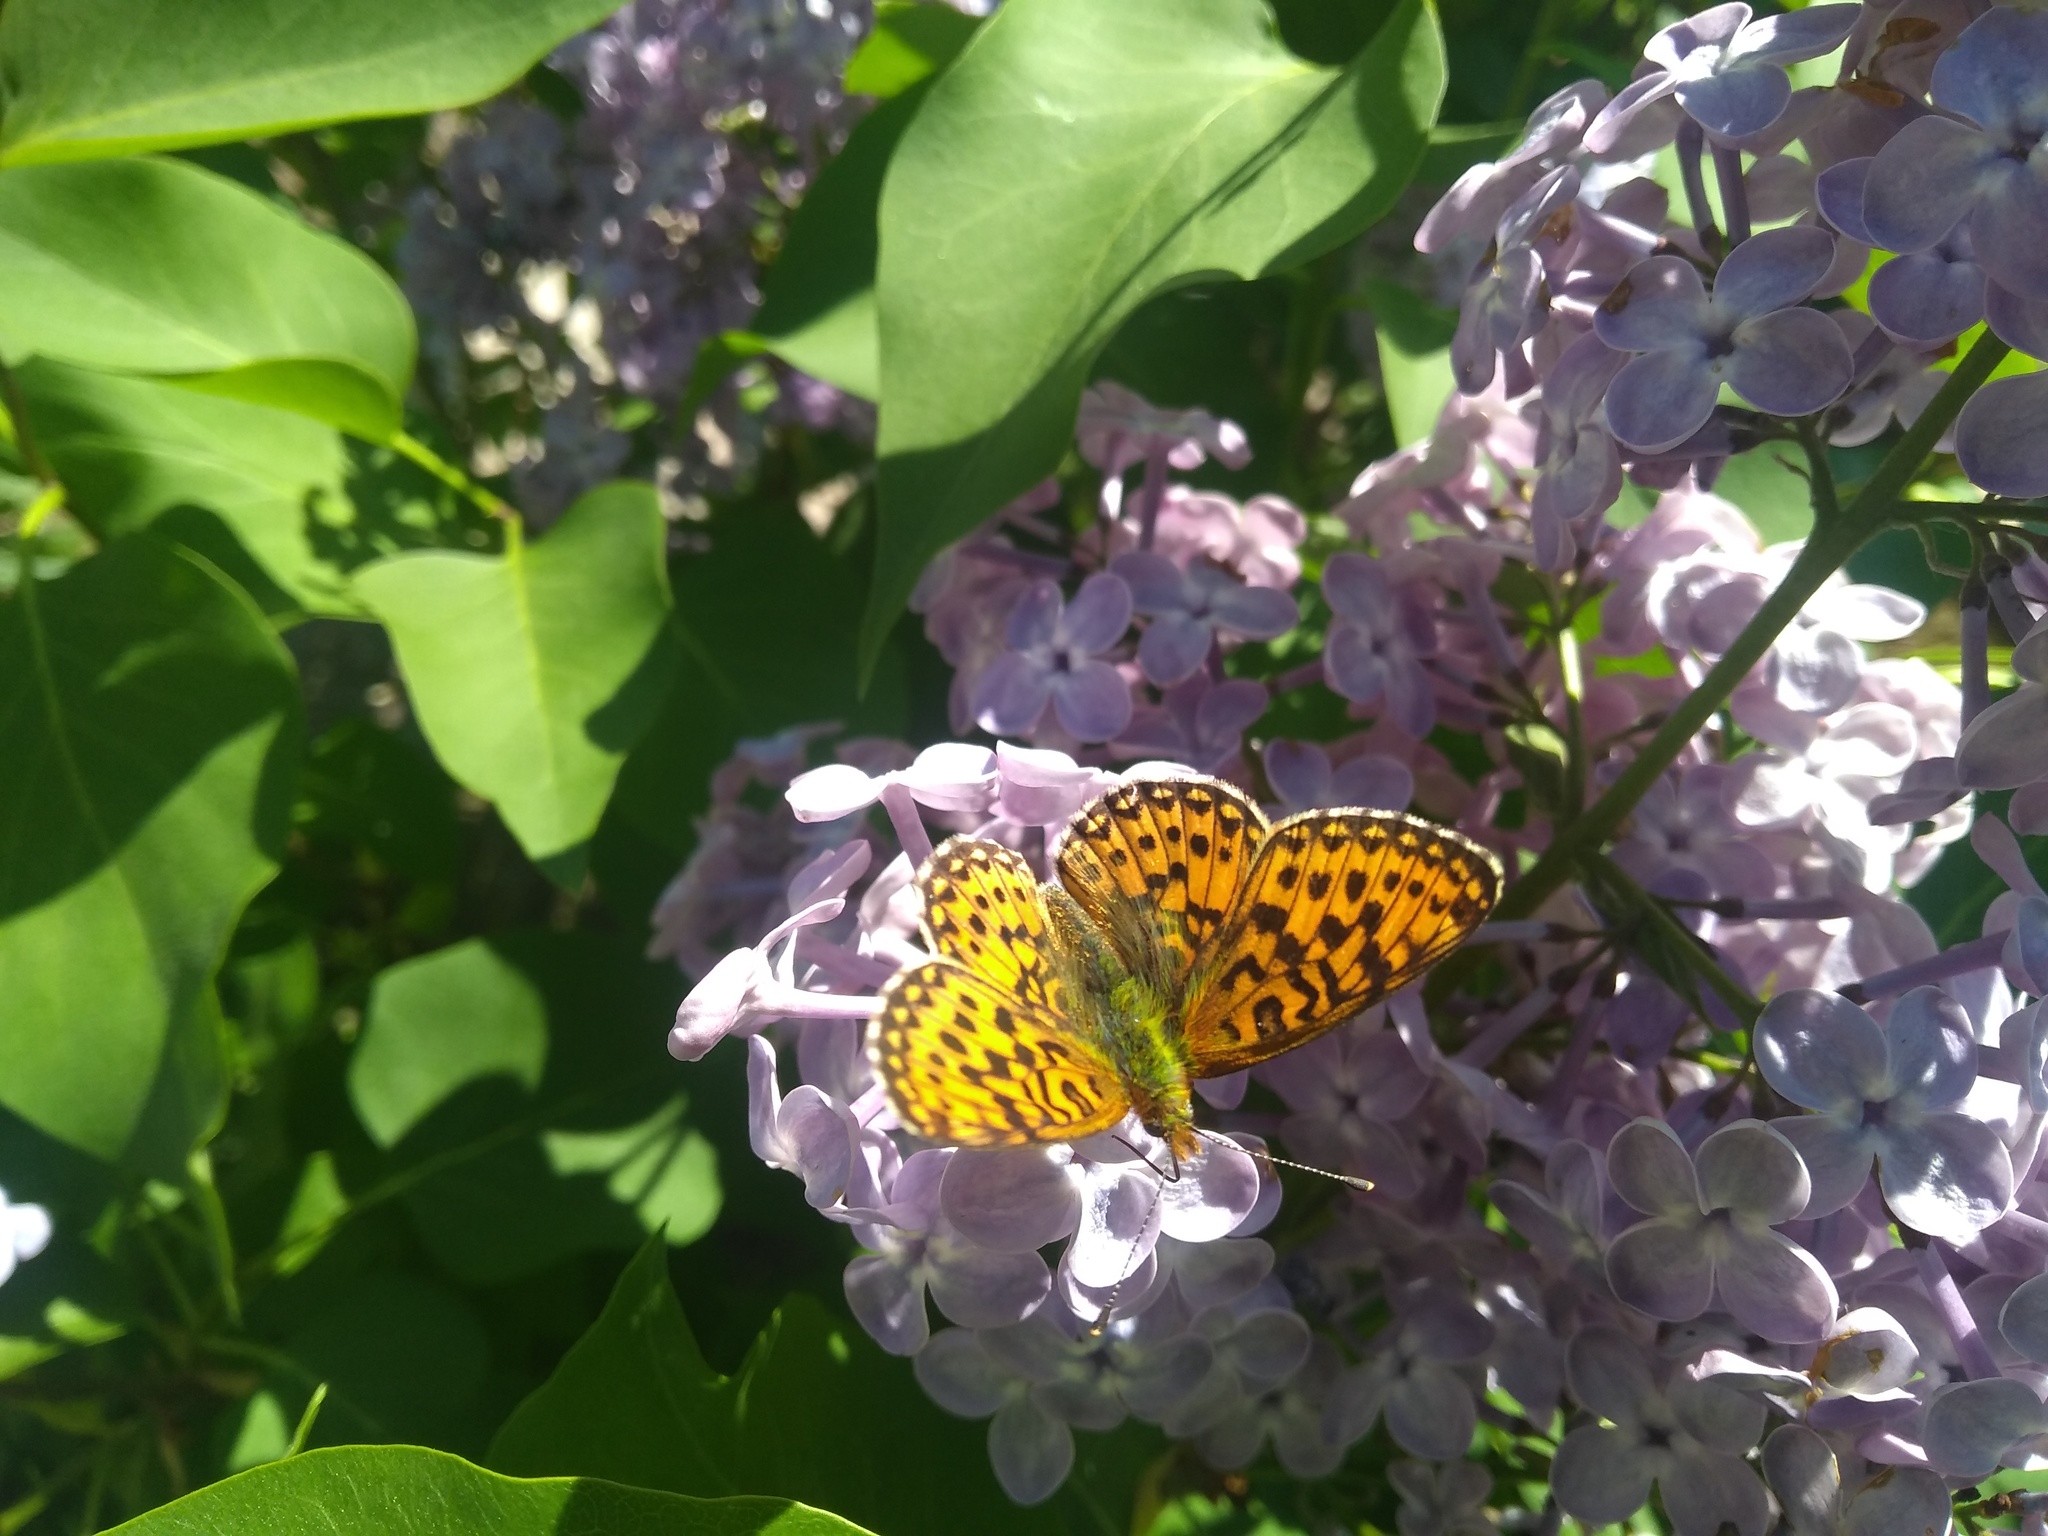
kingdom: Animalia
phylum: Arthropoda
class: Insecta
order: Lepidoptera
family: Nymphalidae
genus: Clossiana
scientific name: Clossiana euphrosyne
